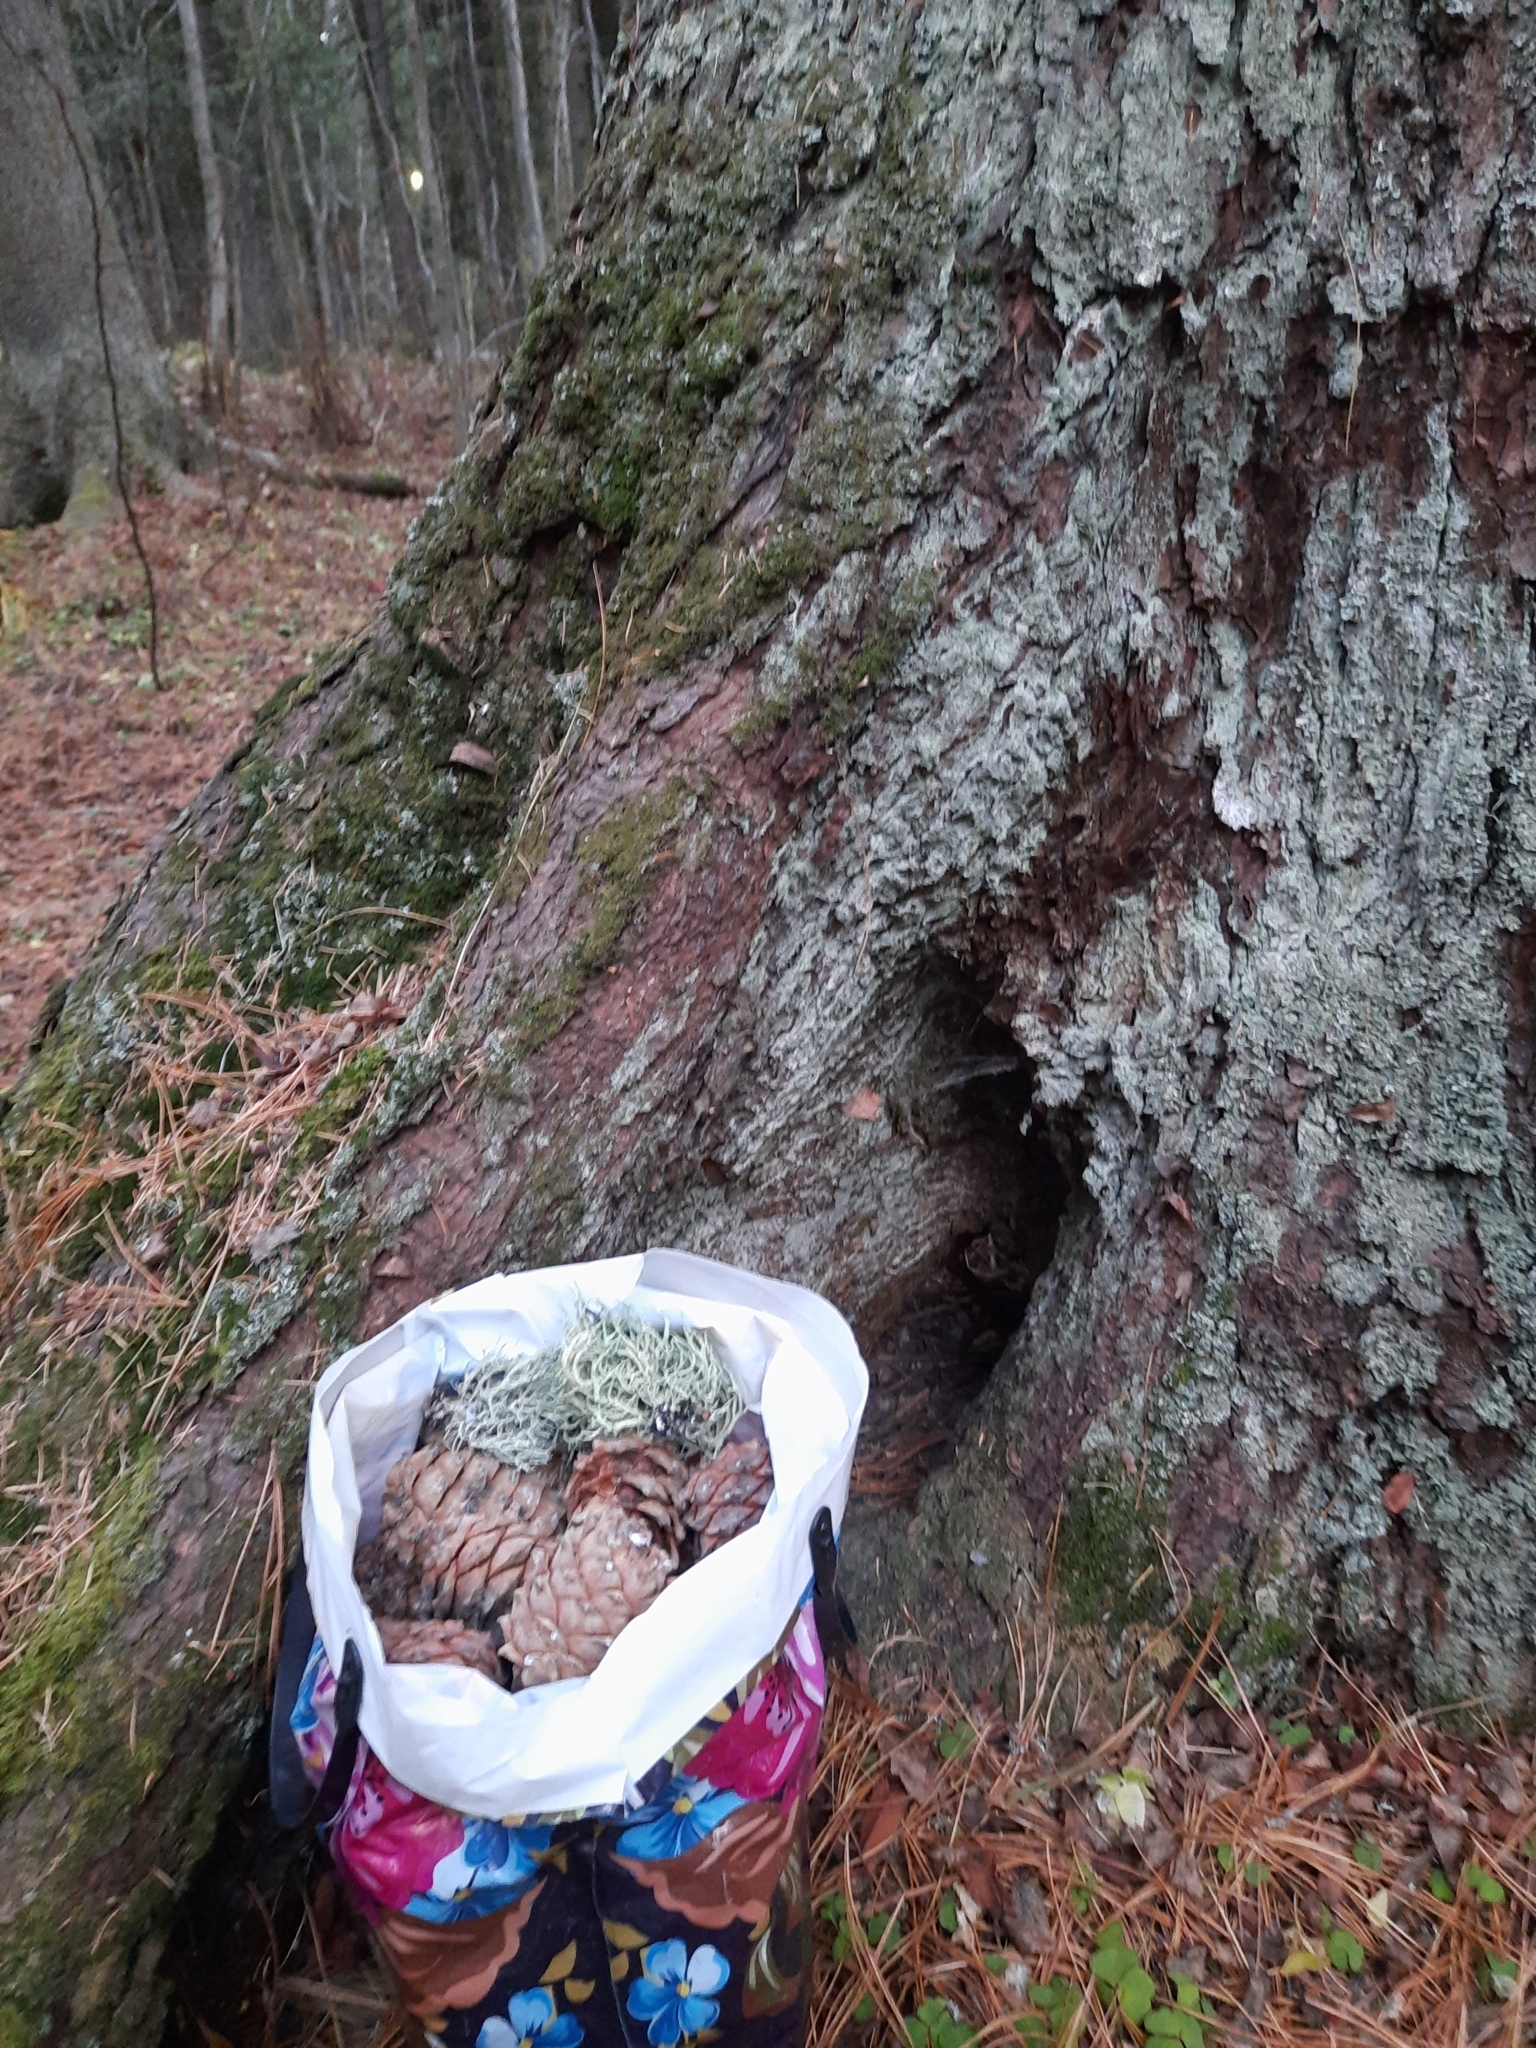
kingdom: Plantae
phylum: Tracheophyta
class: Pinopsida
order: Pinales
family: Pinaceae
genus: Pinus
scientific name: Pinus sibirica
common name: Siberian pine
